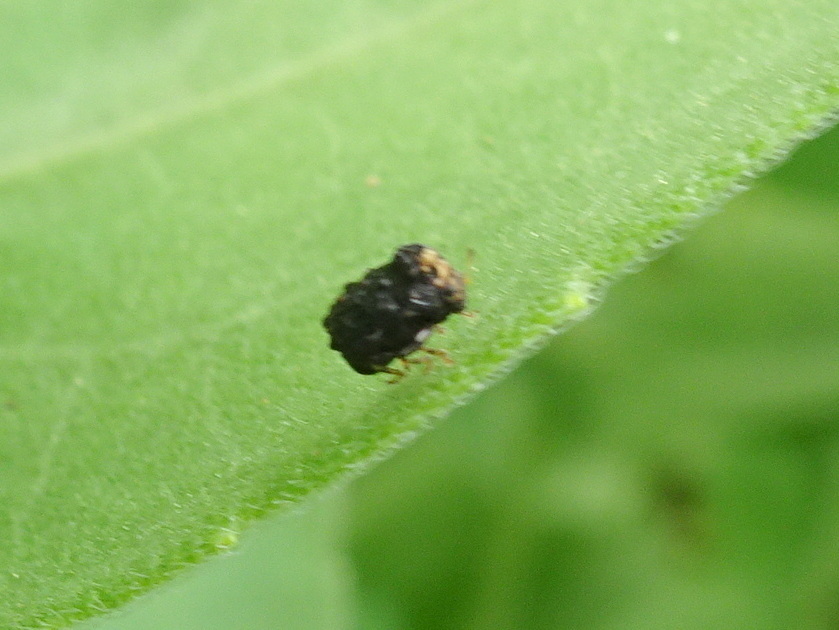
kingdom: Animalia
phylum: Arthropoda
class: Insecta
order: Coleoptera
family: Chrysomelidae
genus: Exema
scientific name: Exema dispar
